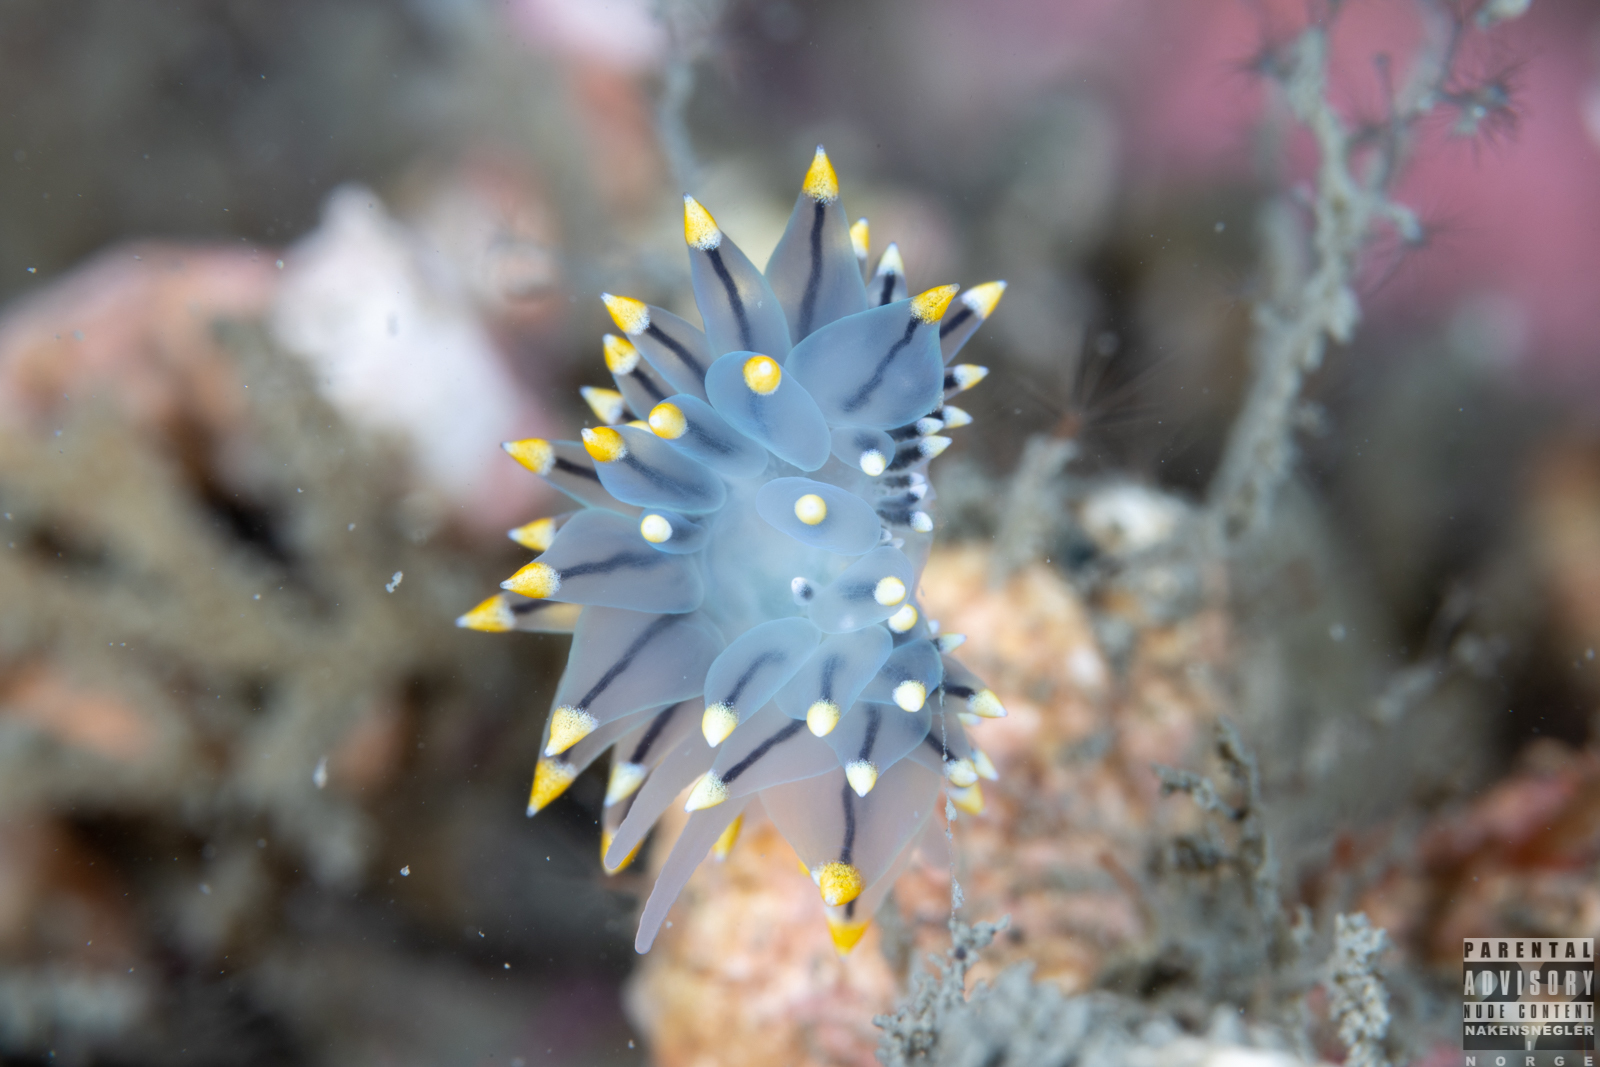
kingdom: Animalia
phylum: Mollusca
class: Gastropoda
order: Nudibranchia
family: Eubranchidae
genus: Eubranchus
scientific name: Eubranchus tricolor
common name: Painted balloon aeolis
